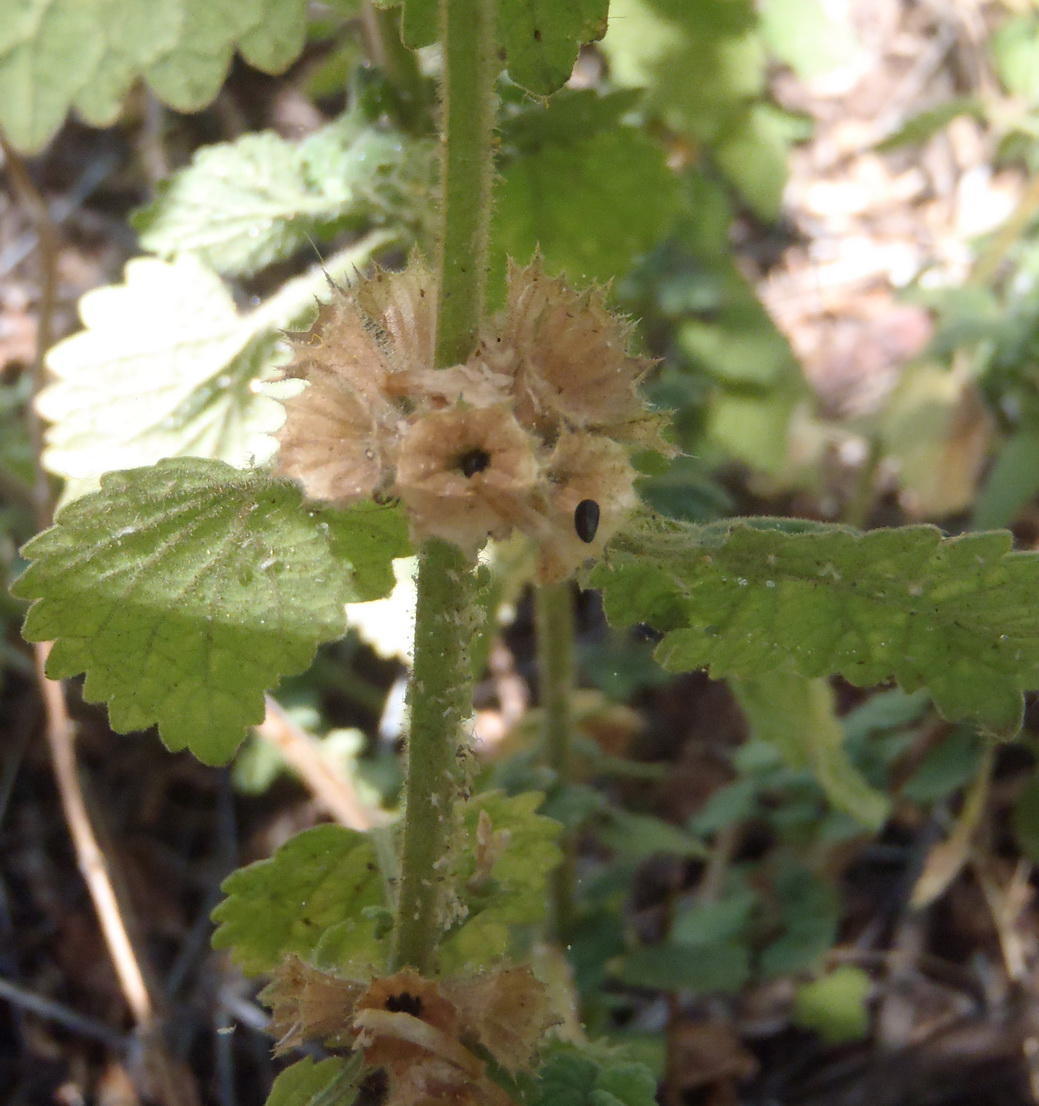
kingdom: Plantae
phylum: Tracheophyta
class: Magnoliopsida
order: Lamiales
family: Lamiaceae
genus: Pseudodictamnus
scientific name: Pseudodictamnus africanus
